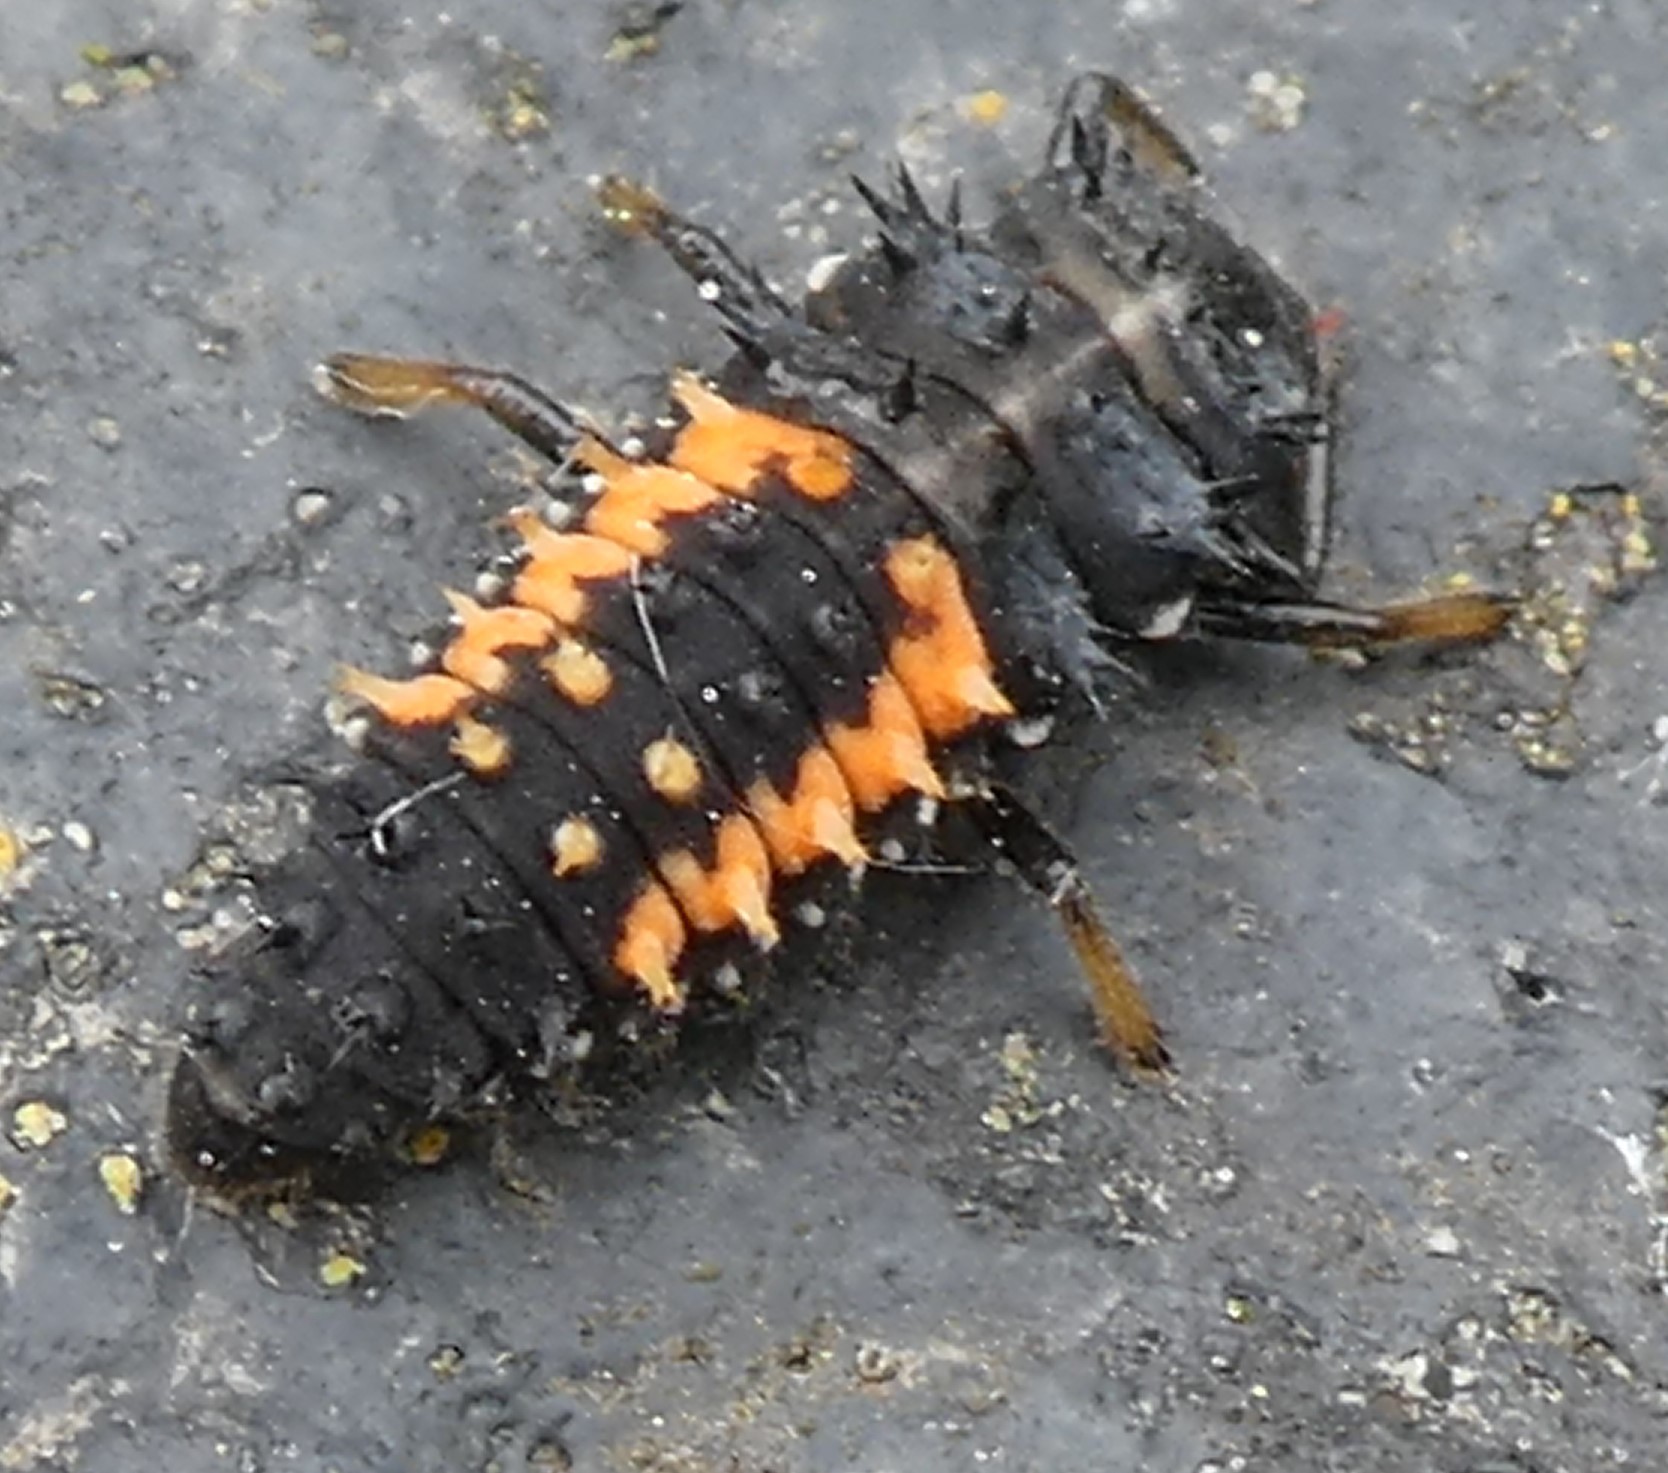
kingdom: Animalia
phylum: Arthropoda
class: Insecta
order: Coleoptera
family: Coccinellidae
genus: Harmonia
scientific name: Harmonia axyridis
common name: Harlequin ladybird
